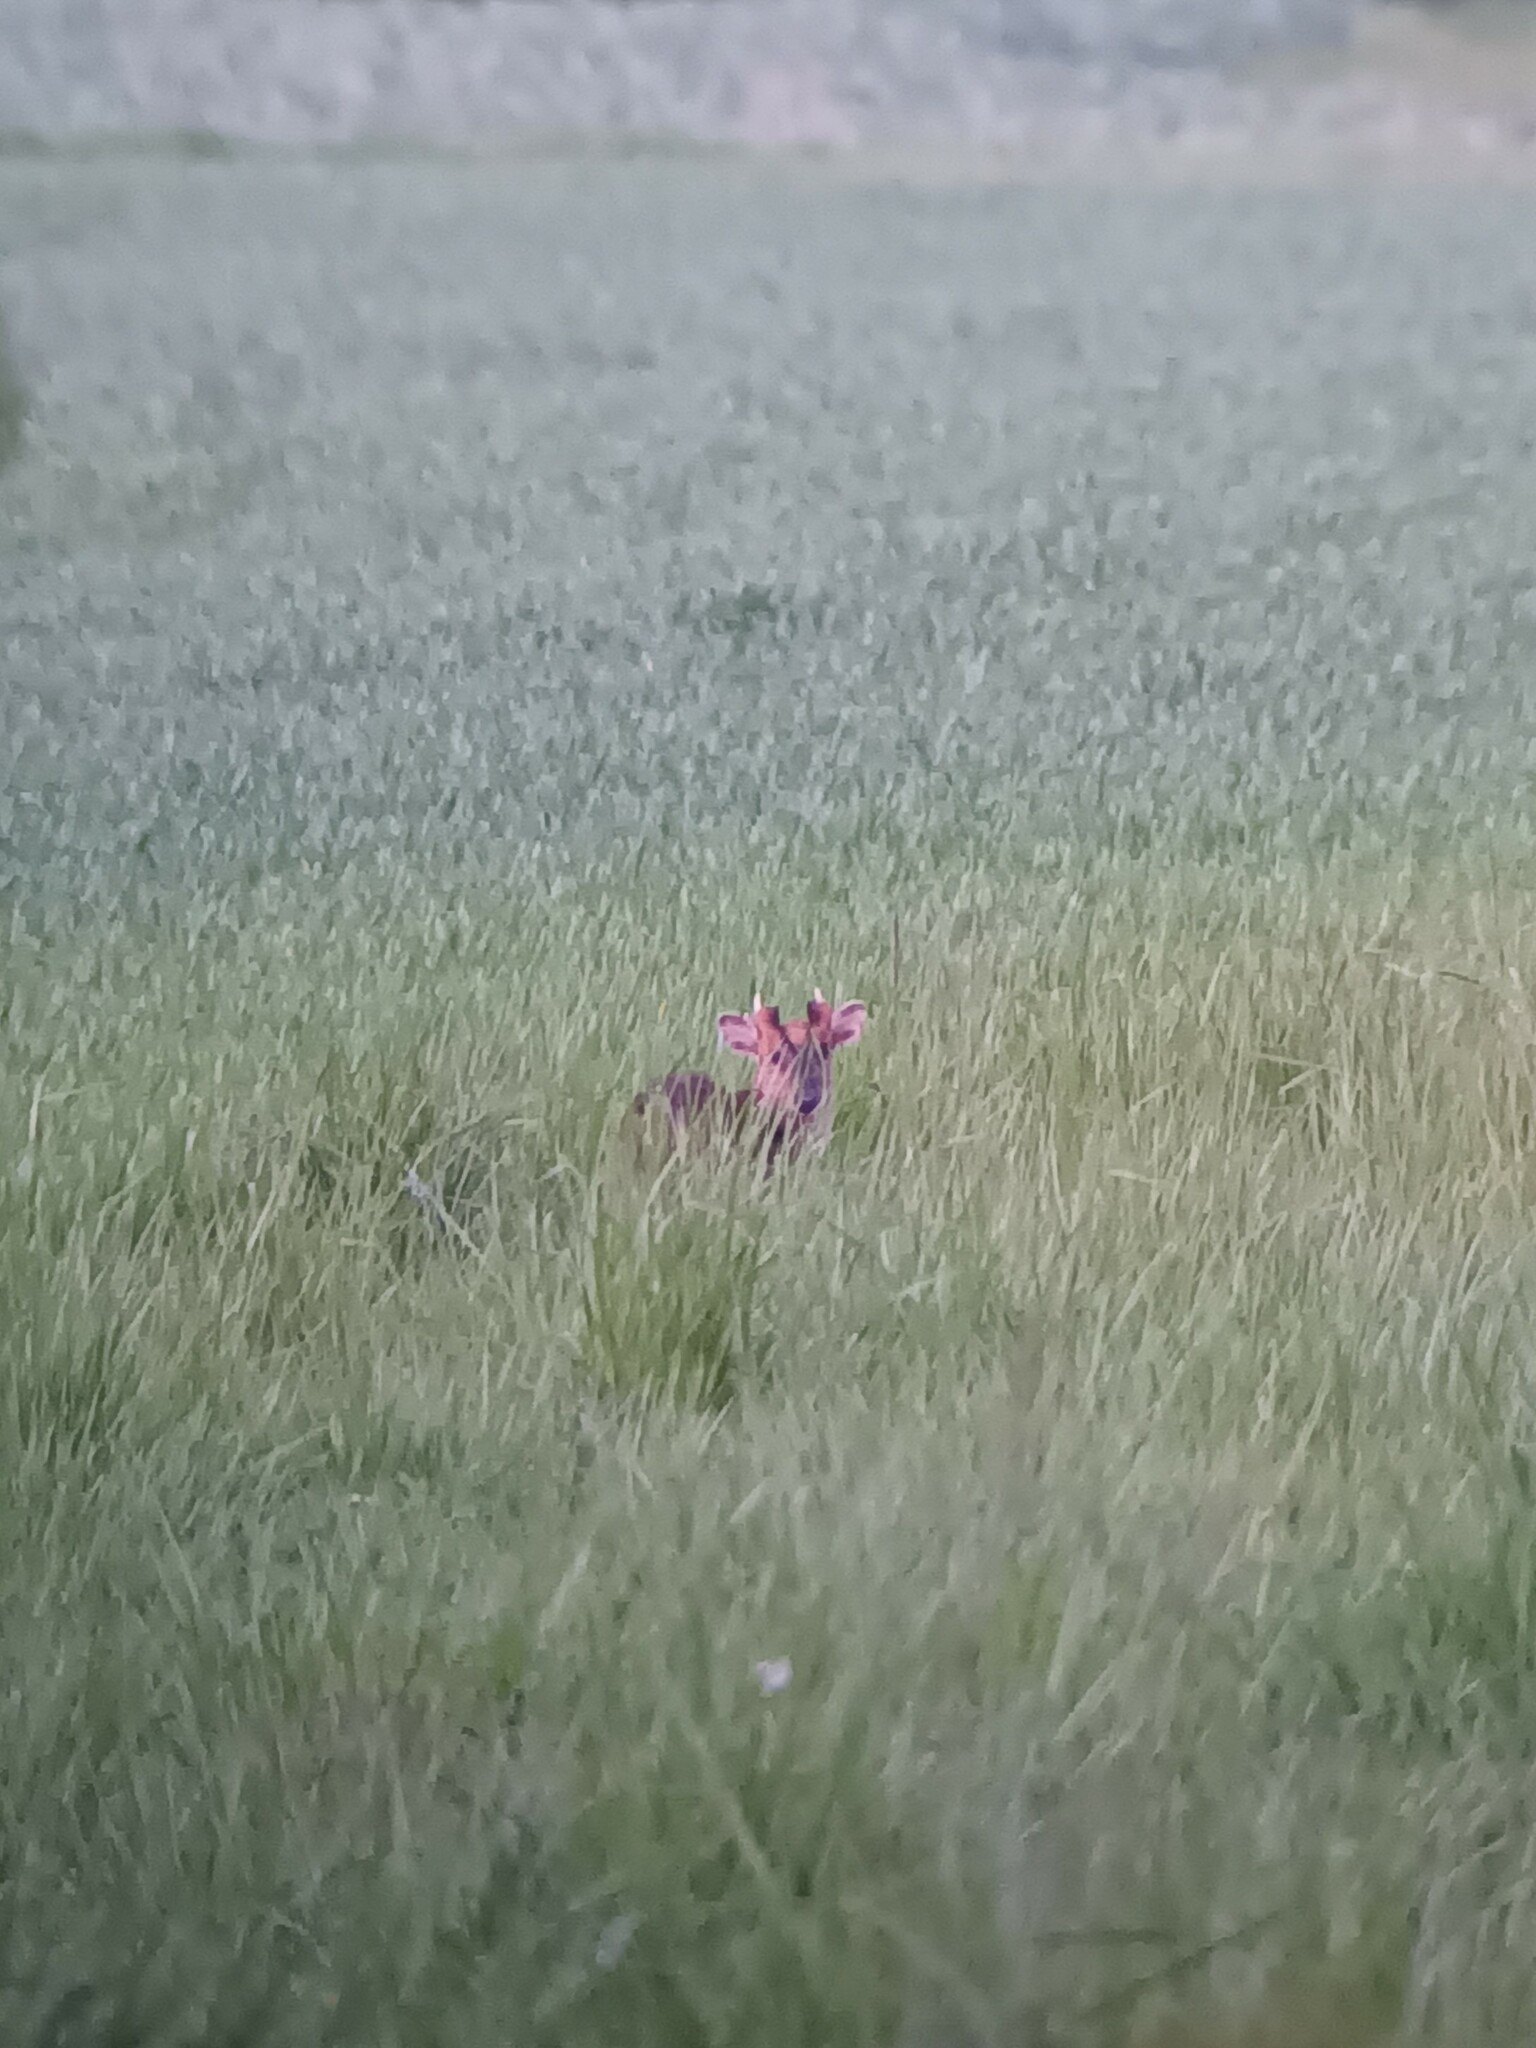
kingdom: Animalia
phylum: Chordata
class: Mammalia
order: Artiodactyla
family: Cervidae
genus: Muntiacus
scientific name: Muntiacus reevesi
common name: Reeves' muntjac
